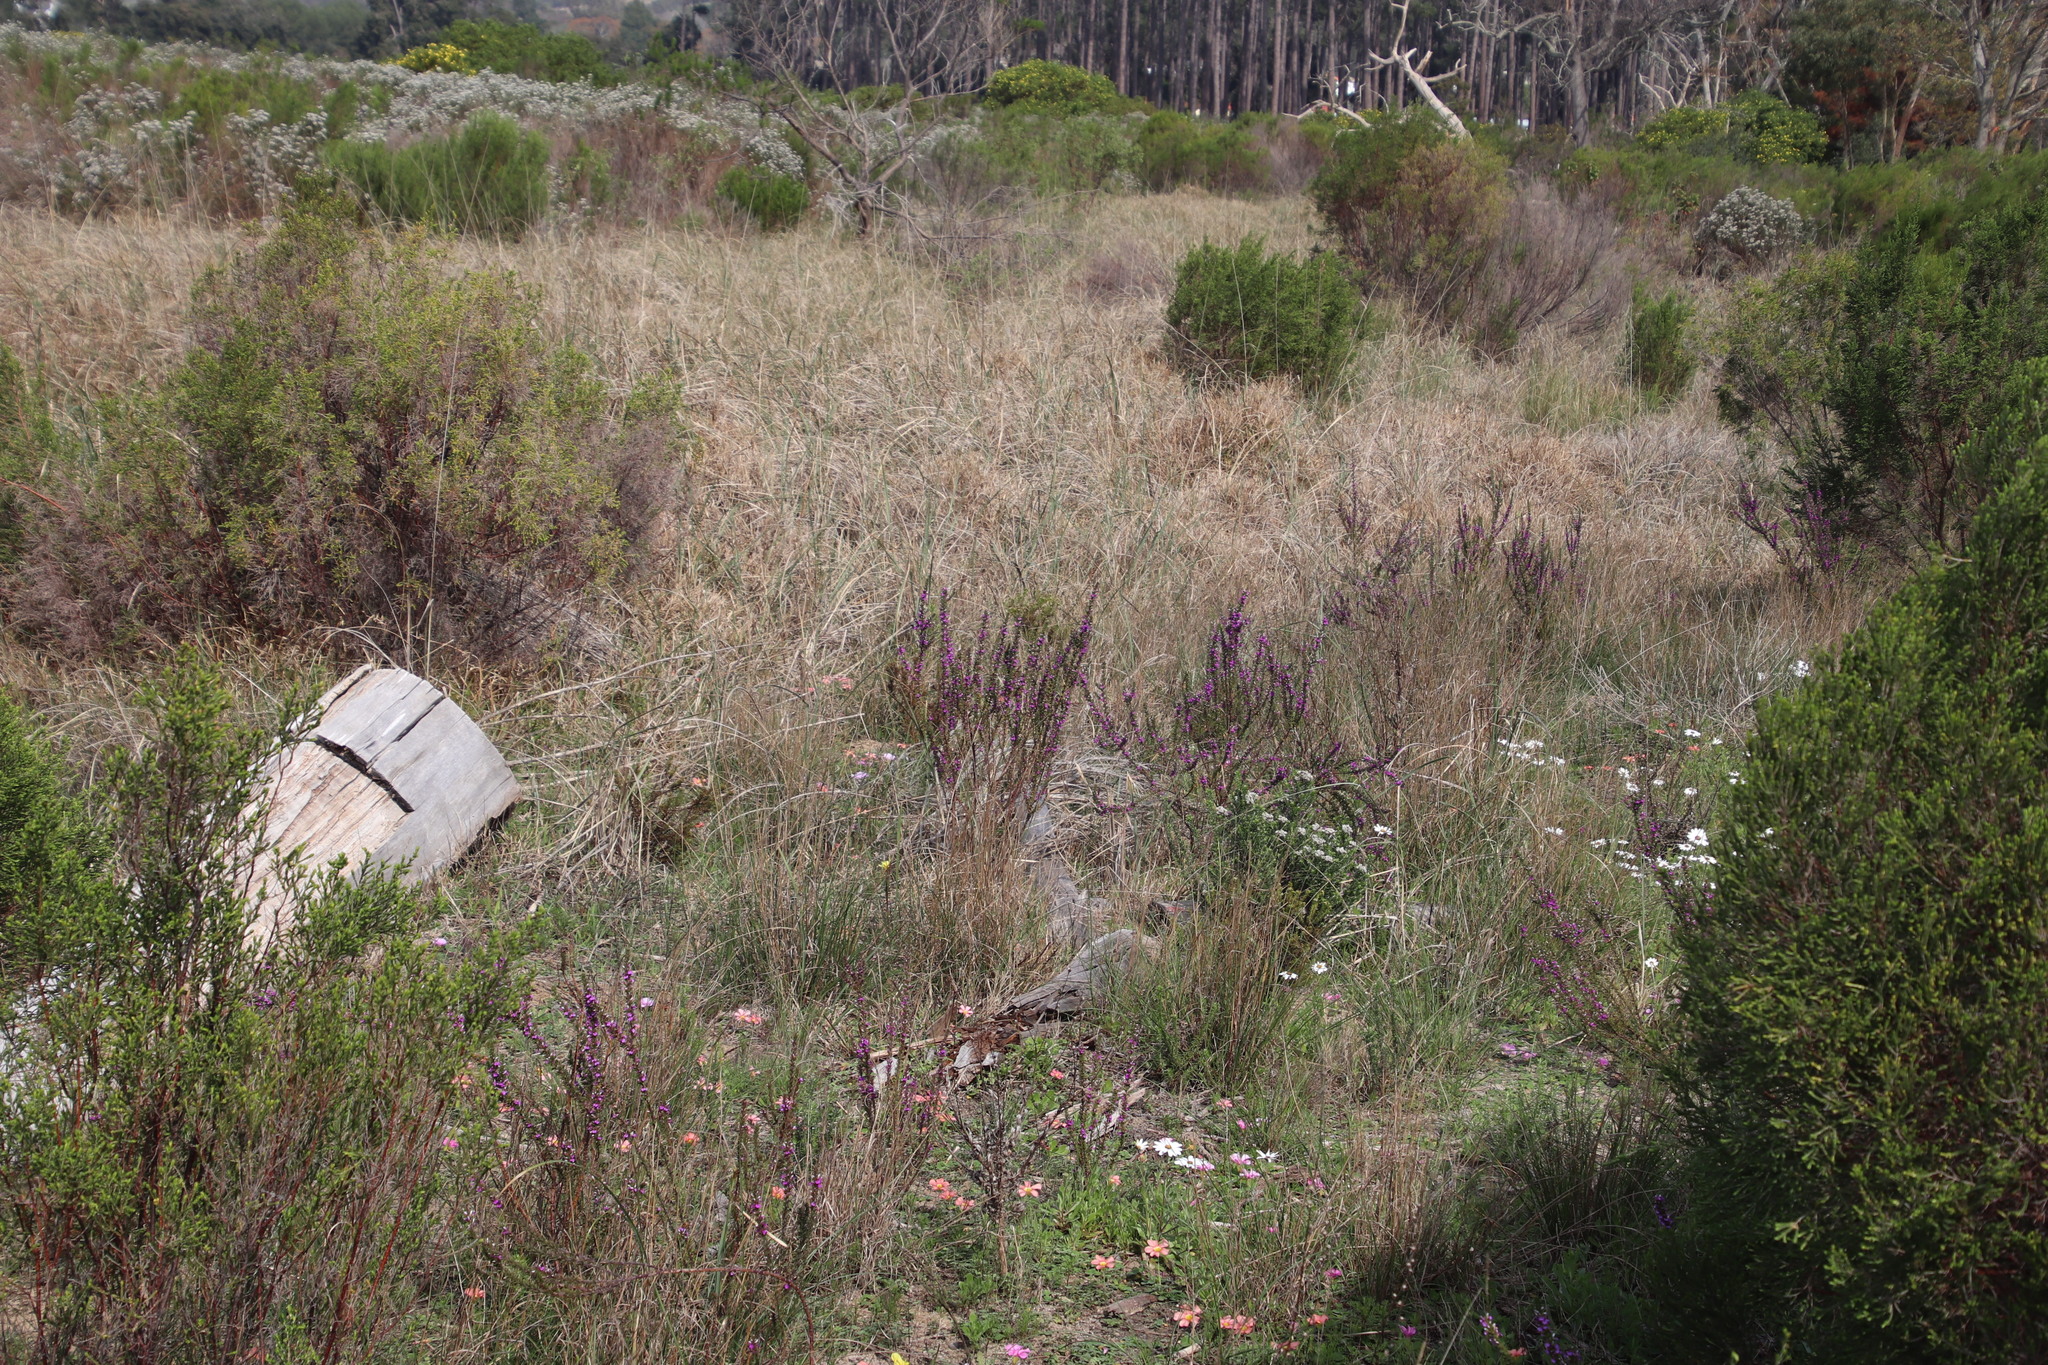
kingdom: Plantae
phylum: Tracheophyta
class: Magnoliopsida
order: Fabales
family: Polygalaceae
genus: Muraltia
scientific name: Muraltia heisteria
